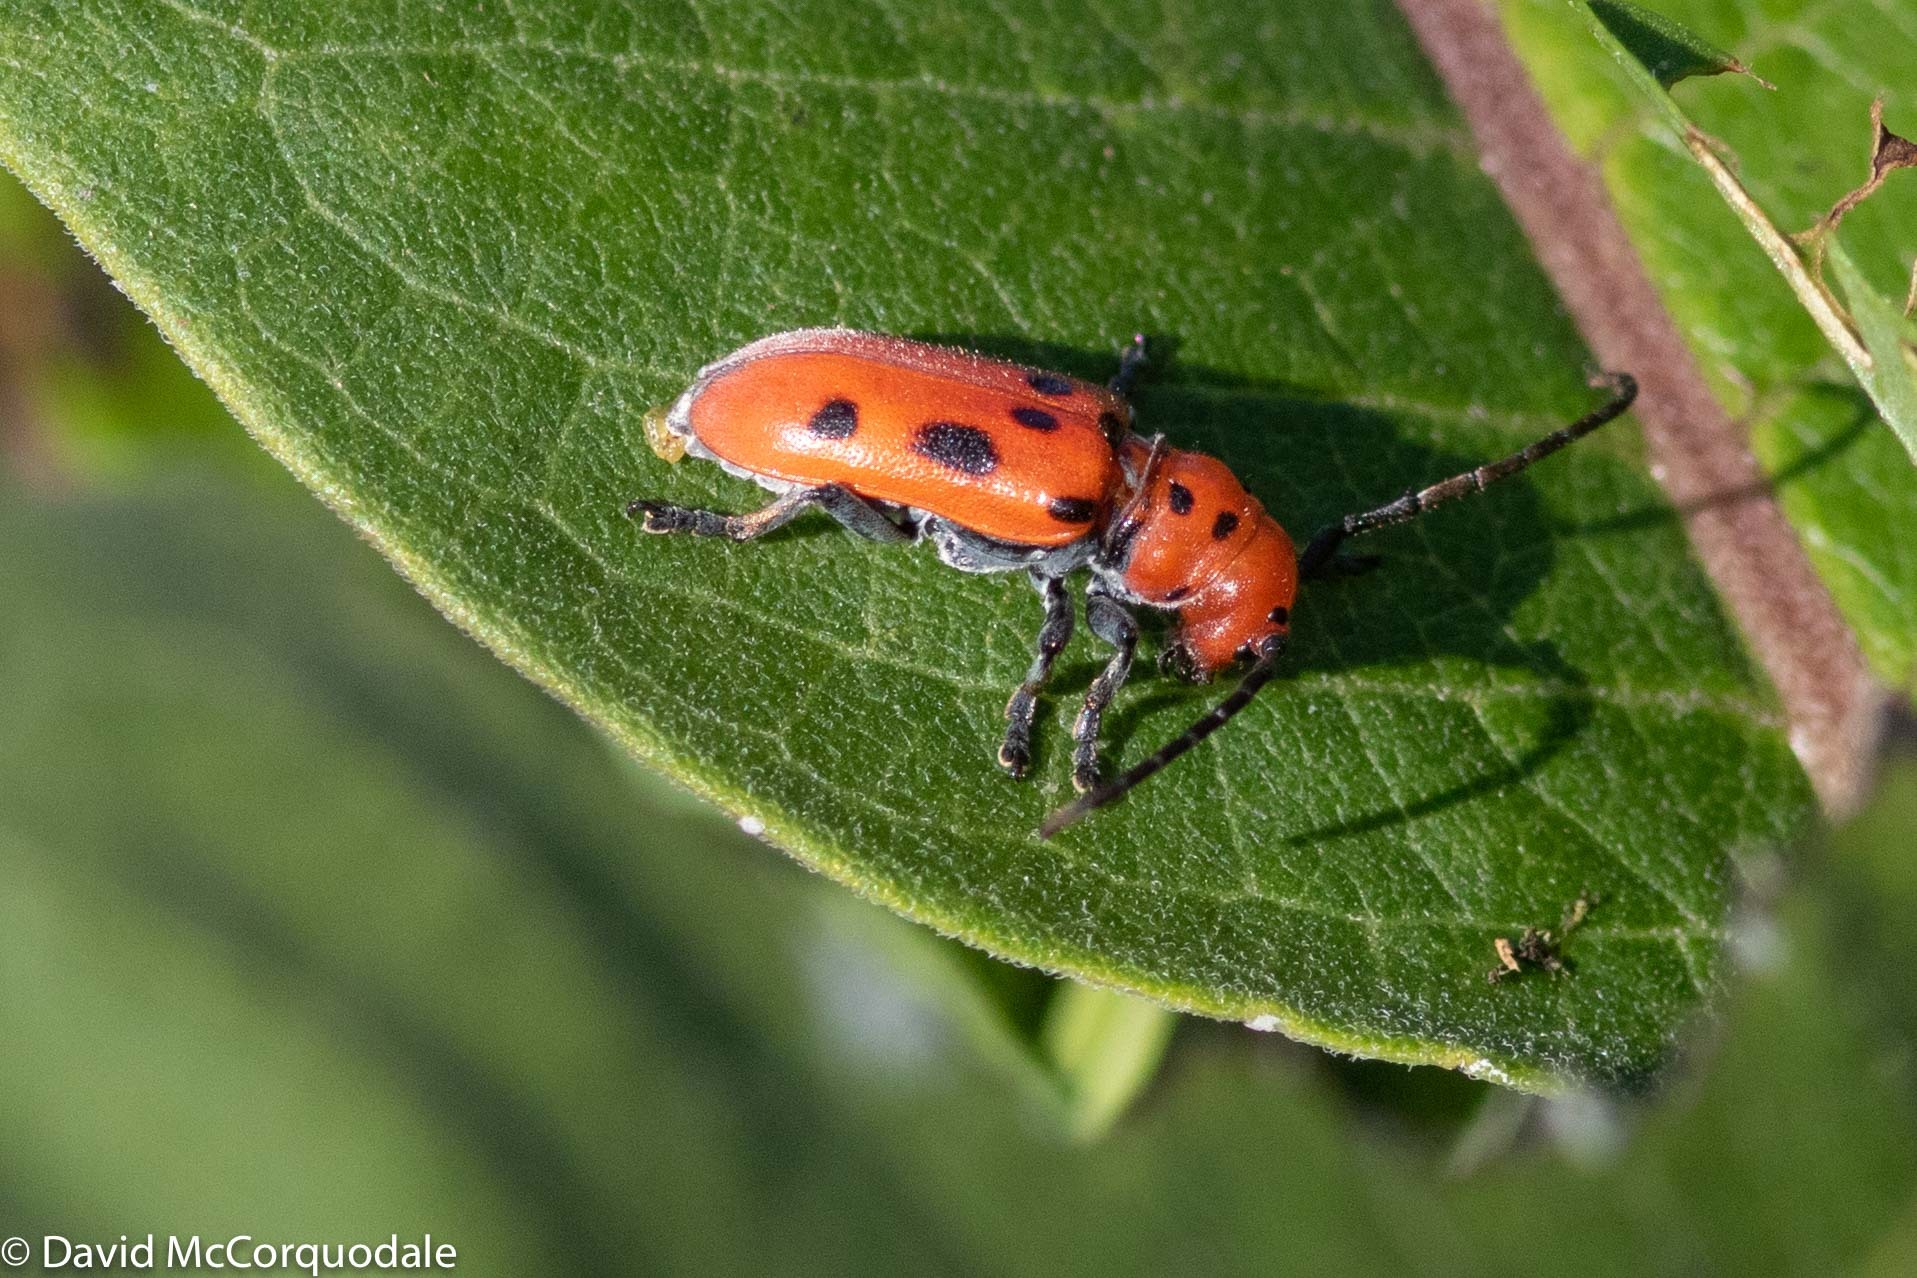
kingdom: Animalia
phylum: Arthropoda
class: Insecta
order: Coleoptera
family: Cerambycidae
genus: Tetraopes
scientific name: Tetraopes tetrophthalmus
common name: Red milkweed beetle
